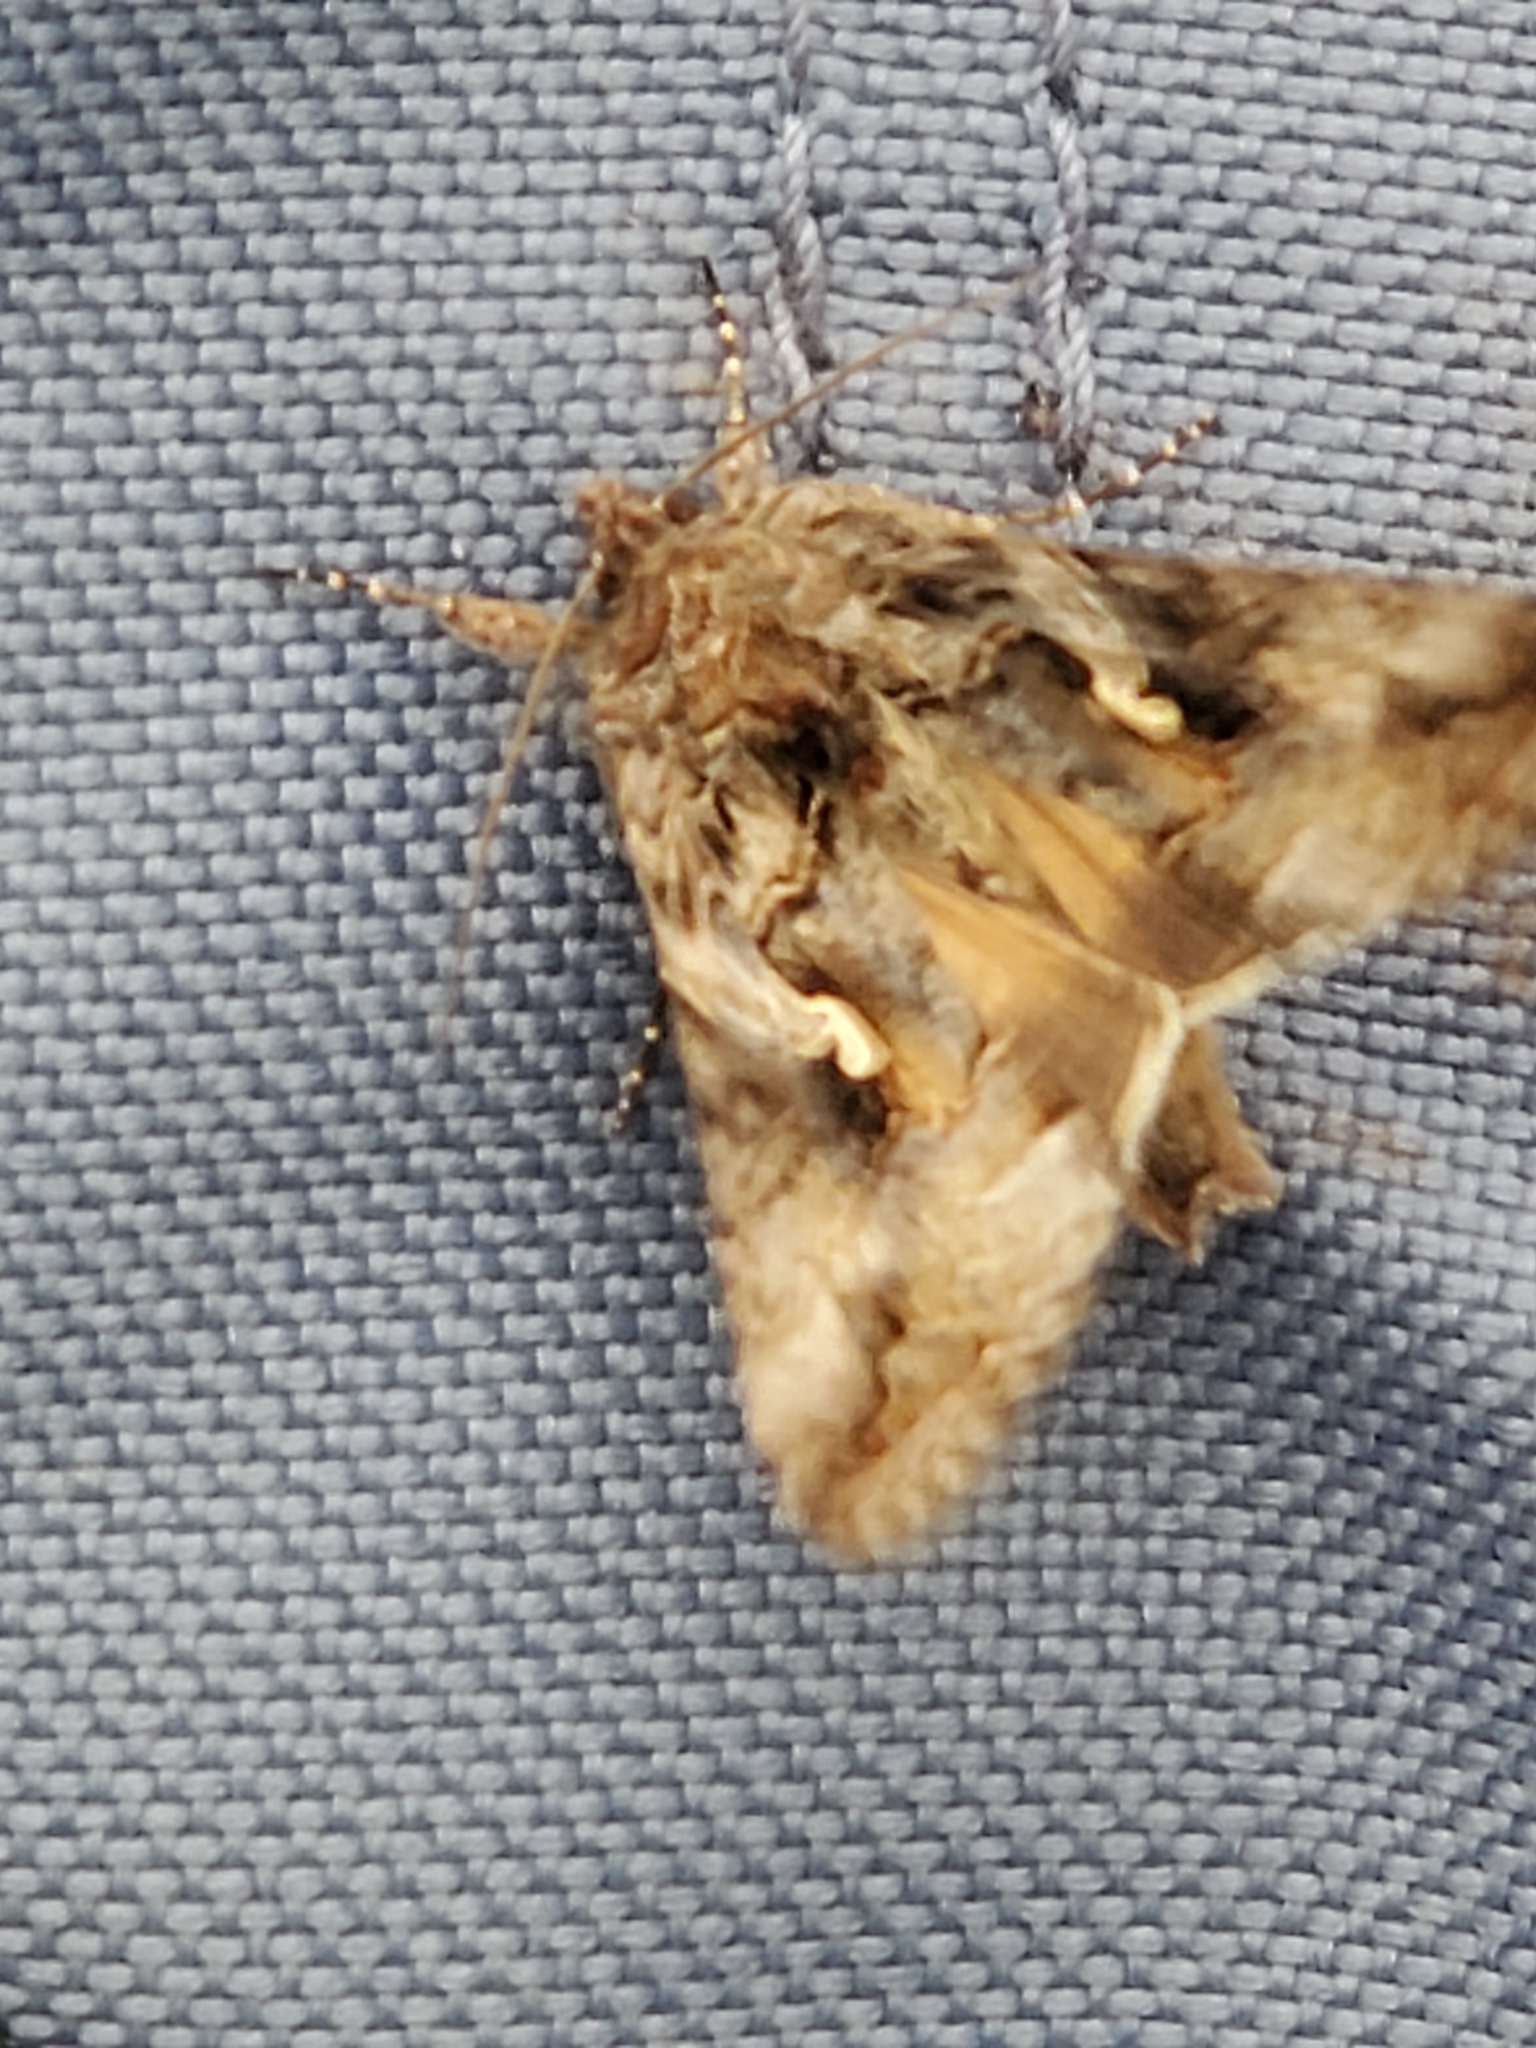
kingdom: Animalia
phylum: Arthropoda
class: Insecta
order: Lepidoptera
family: Noctuidae
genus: Autographa
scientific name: Autographa californica
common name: Alfalfa looper
